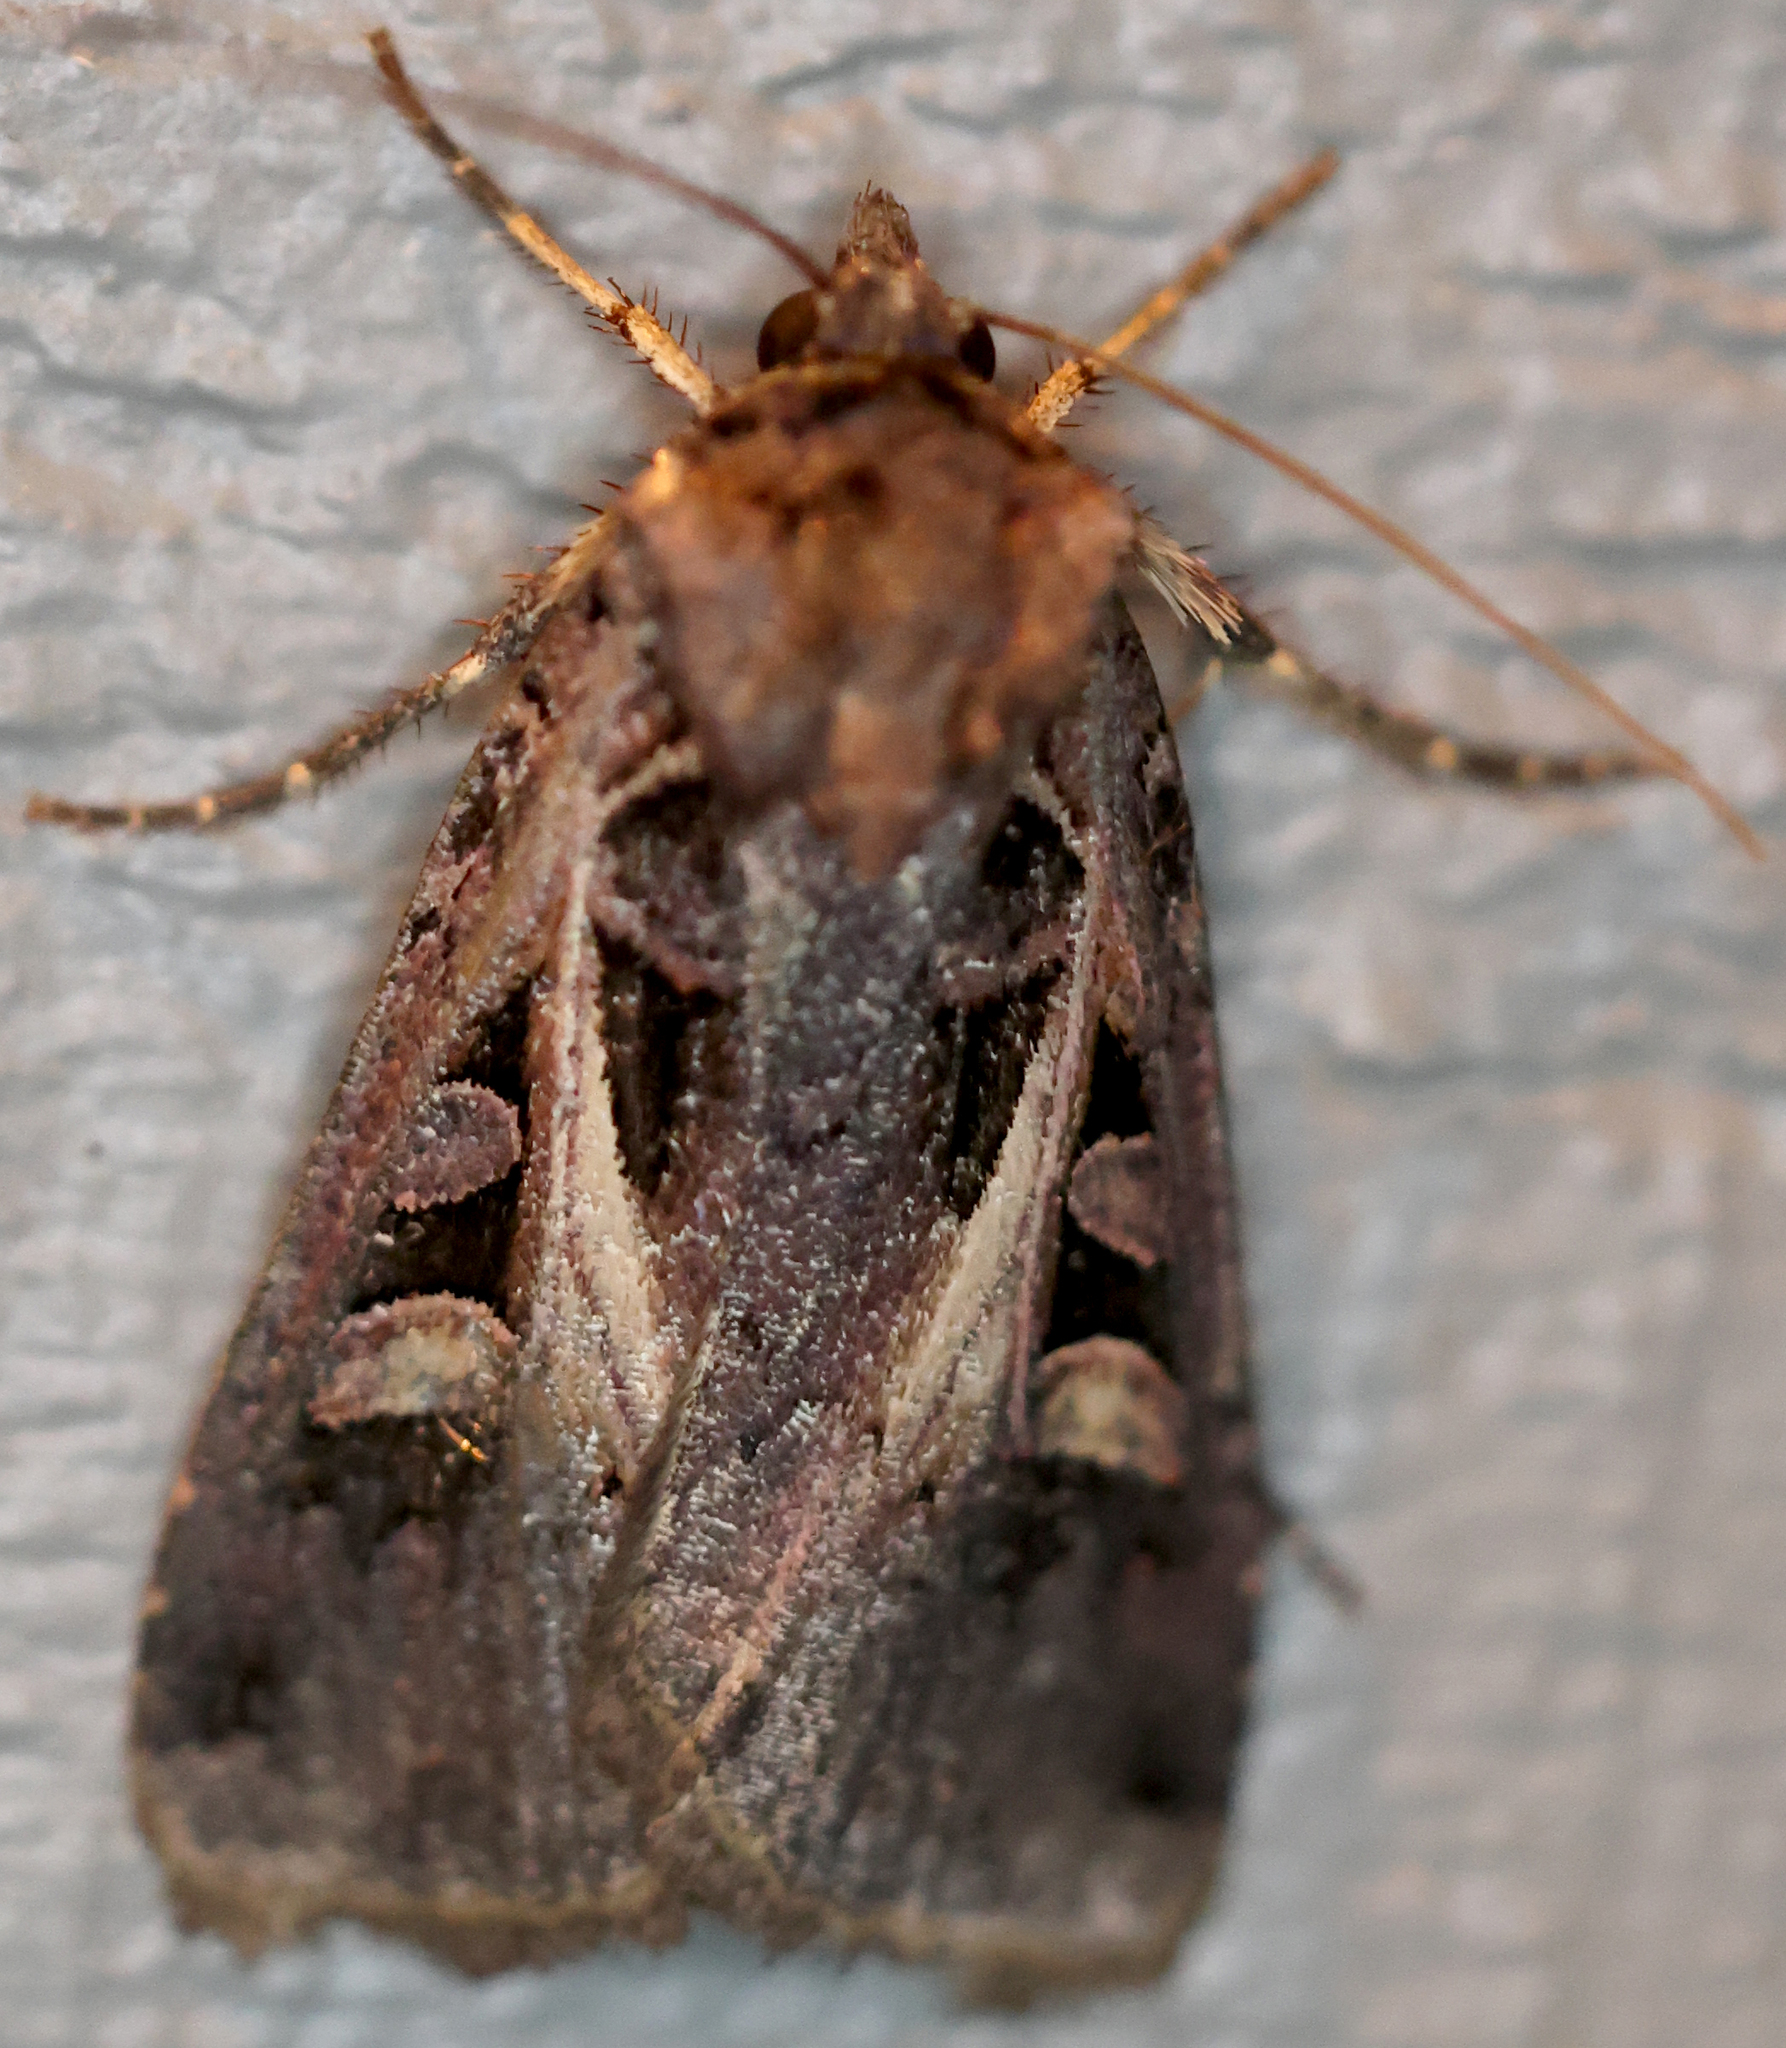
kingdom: Animalia
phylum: Arthropoda
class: Insecta
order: Lepidoptera
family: Noctuidae
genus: Feltia
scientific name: Feltia herilis
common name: Master's dart
